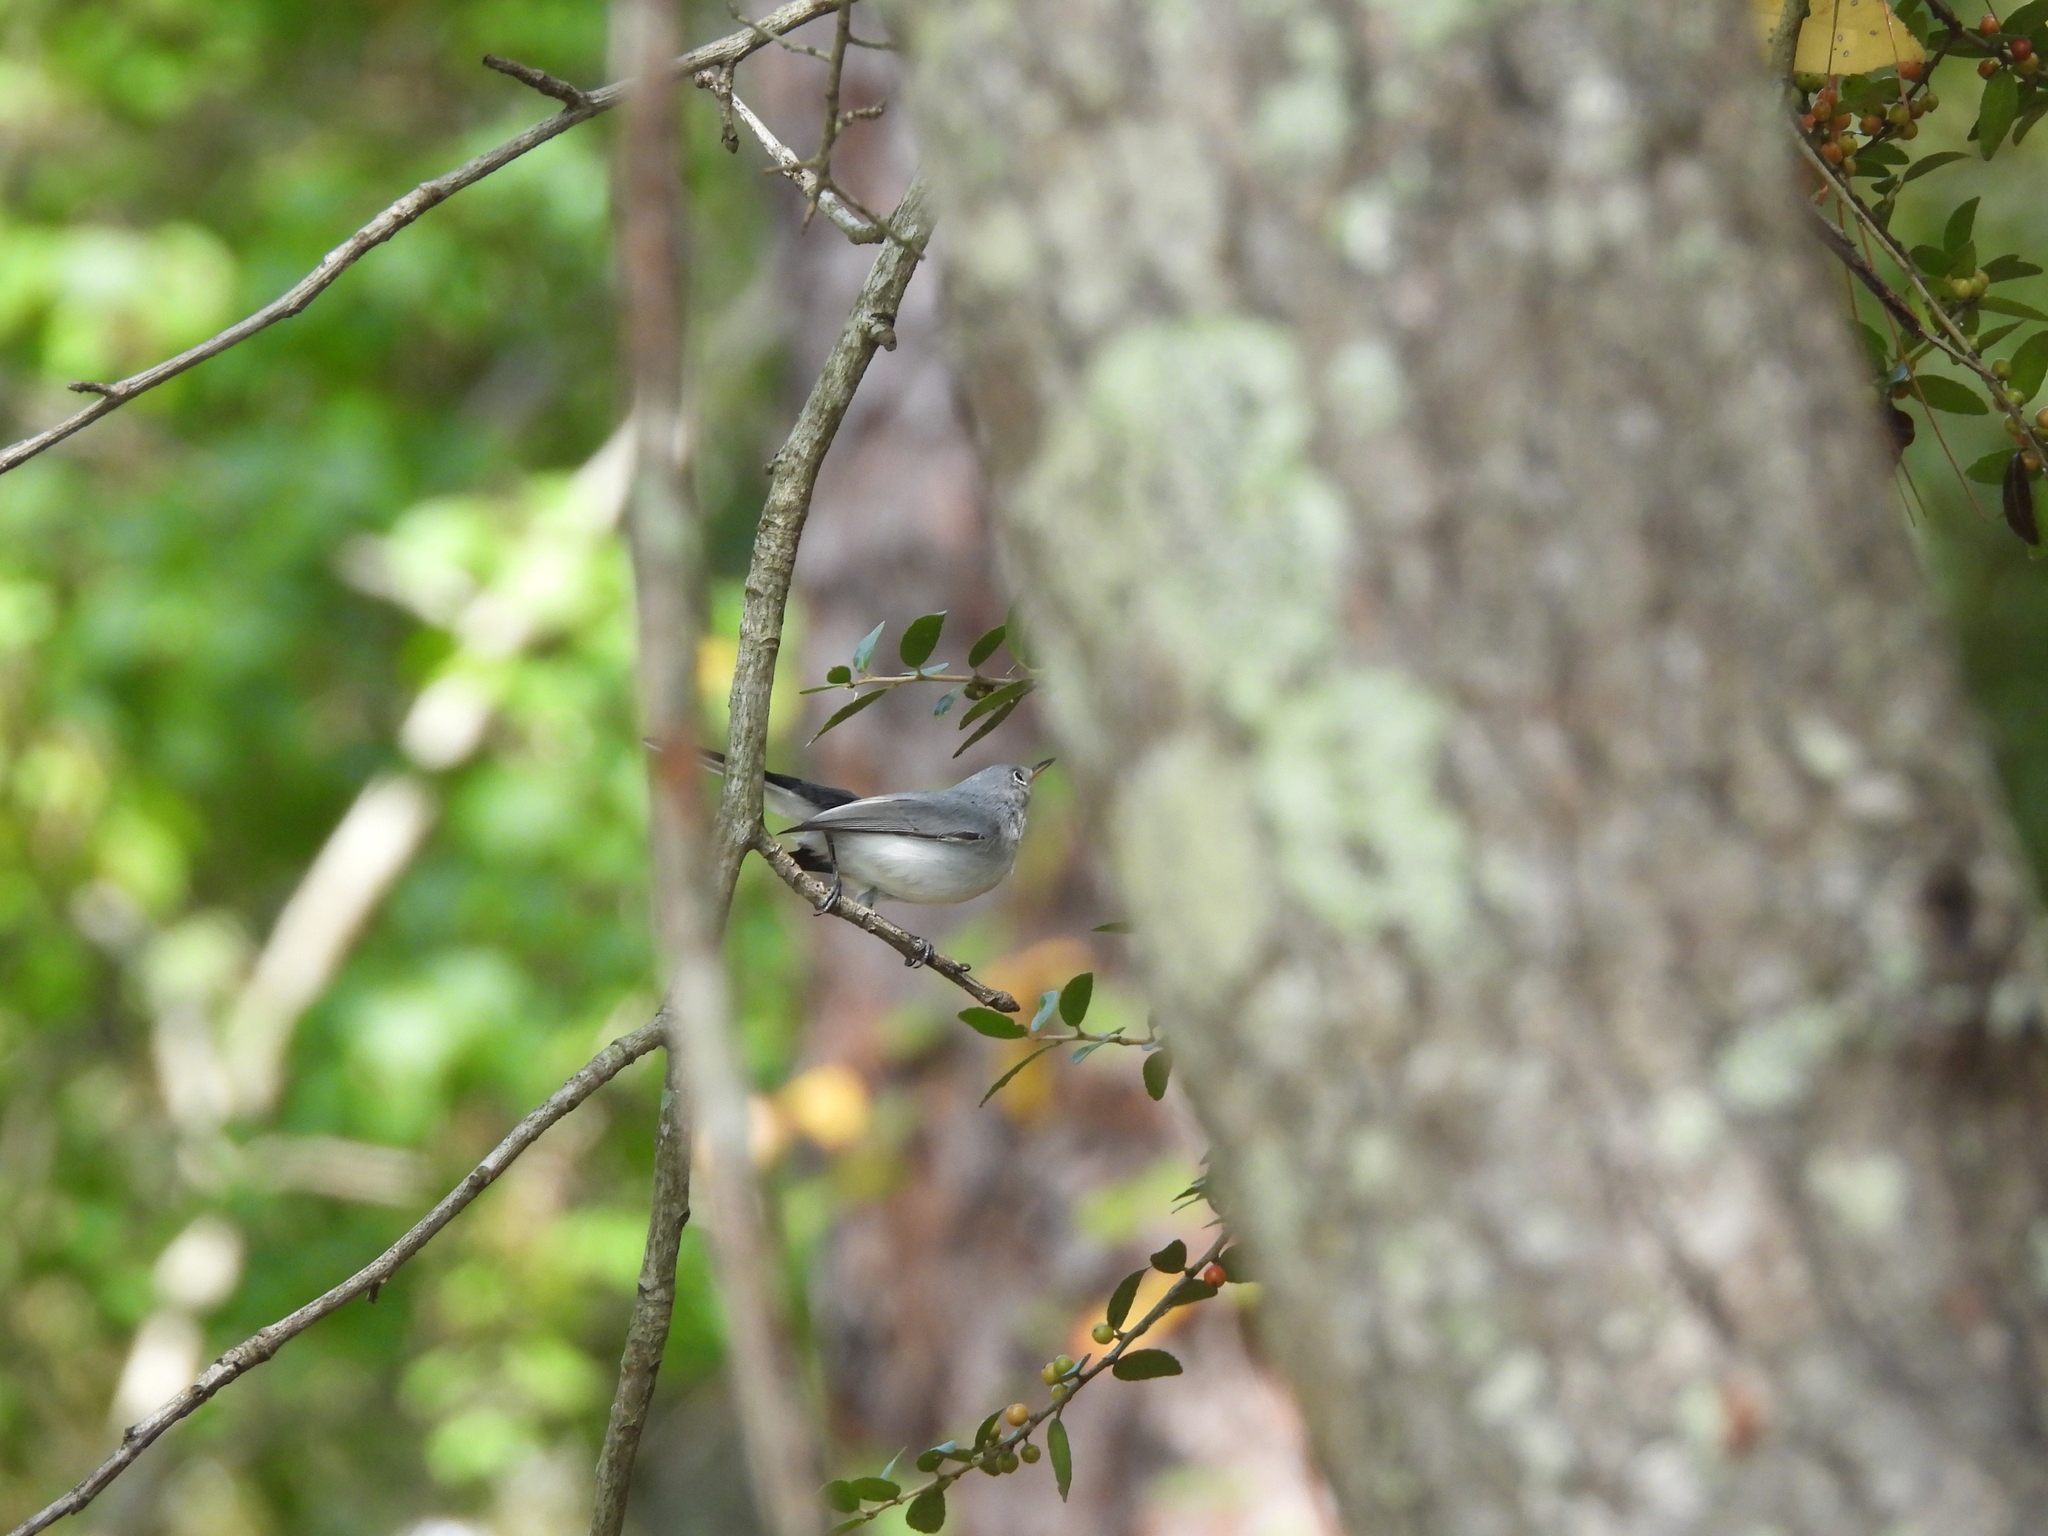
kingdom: Animalia
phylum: Chordata
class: Aves
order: Passeriformes
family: Polioptilidae
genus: Polioptila
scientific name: Polioptila caerulea
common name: Blue-gray gnatcatcher
